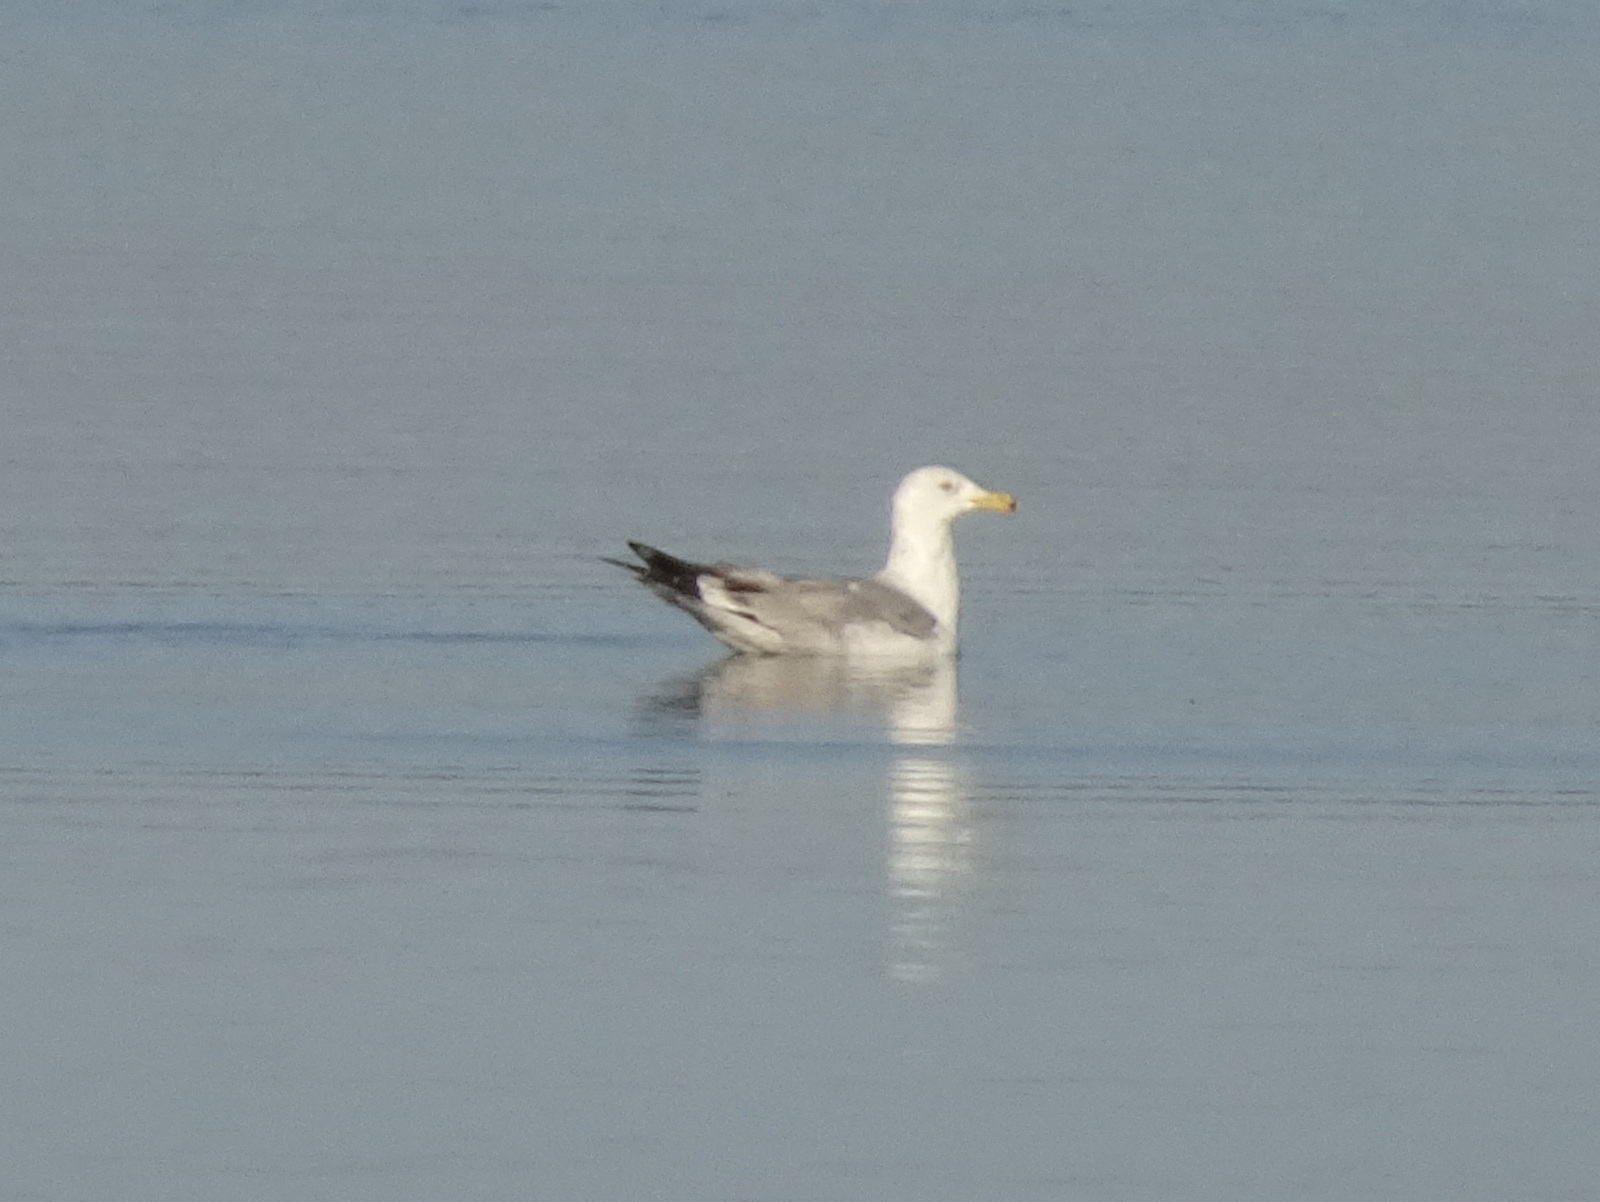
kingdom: Animalia
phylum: Chordata
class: Aves
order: Charadriiformes
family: Laridae
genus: Larus
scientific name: Larus argentatus
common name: Herring gull
